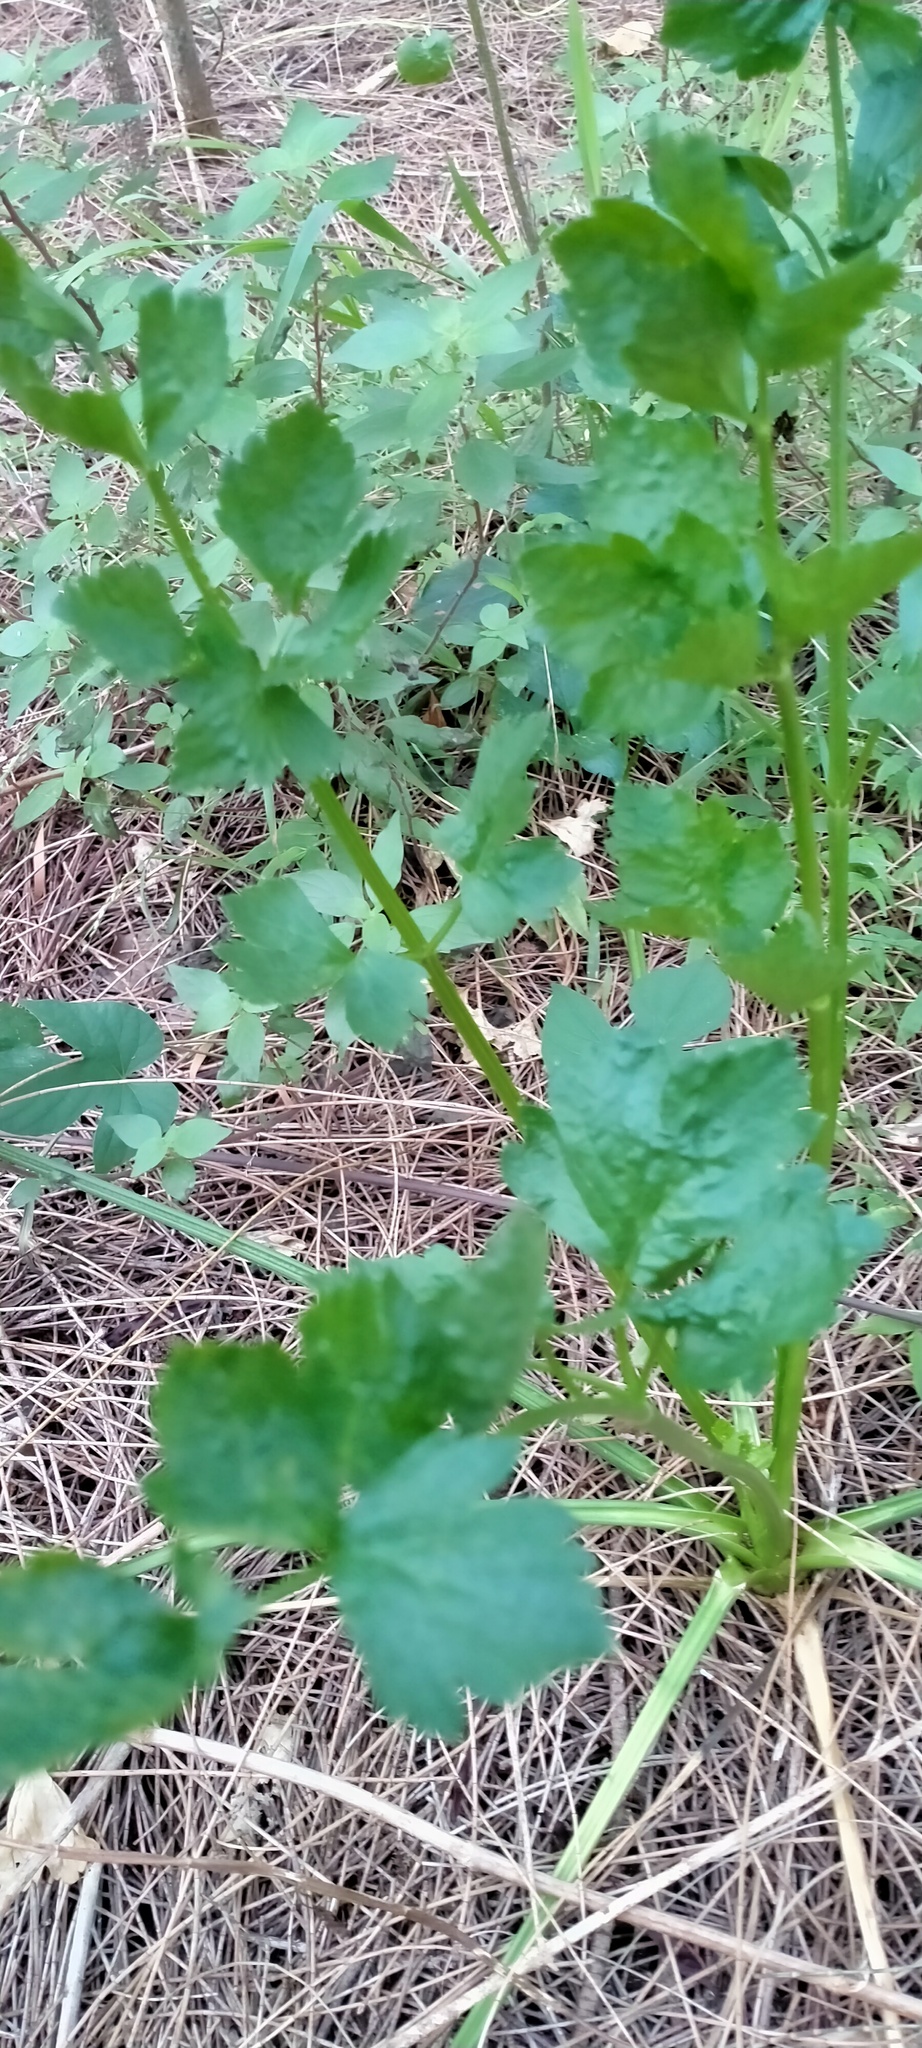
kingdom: Plantae
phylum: Tracheophyta
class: Magnoliopsida
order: Apiales
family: Apiaceae
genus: Apium
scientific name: Apium graveolens
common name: Wild celery
